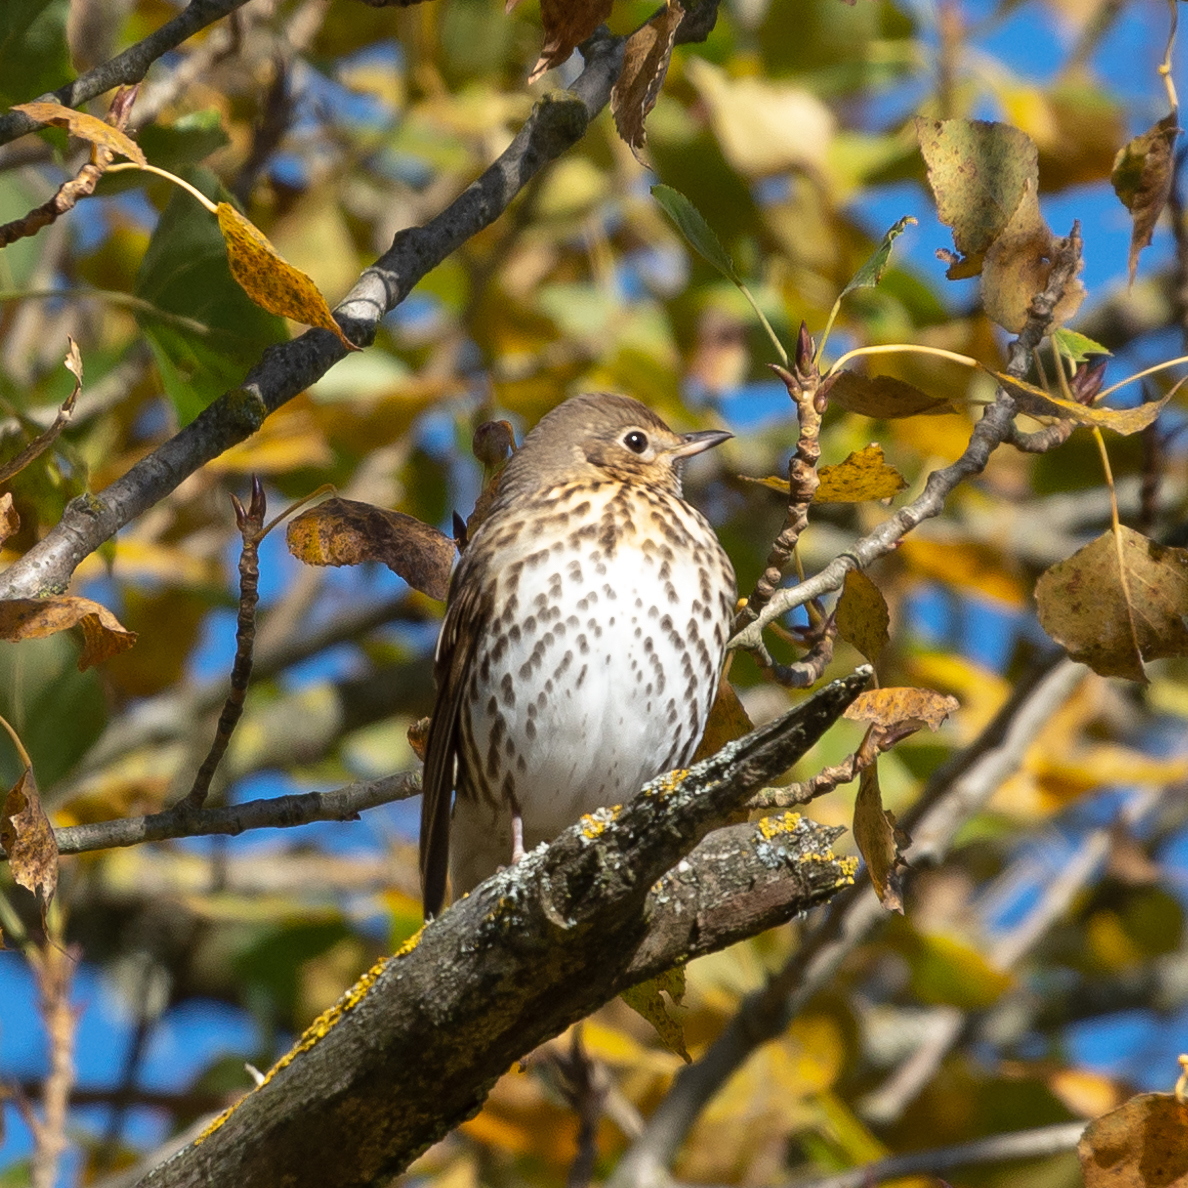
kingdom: Animalia
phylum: Chordata
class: Aves
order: Passeriformes
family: Turdidae
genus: Turdus
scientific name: Turdus philomelos
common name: Song thrush
